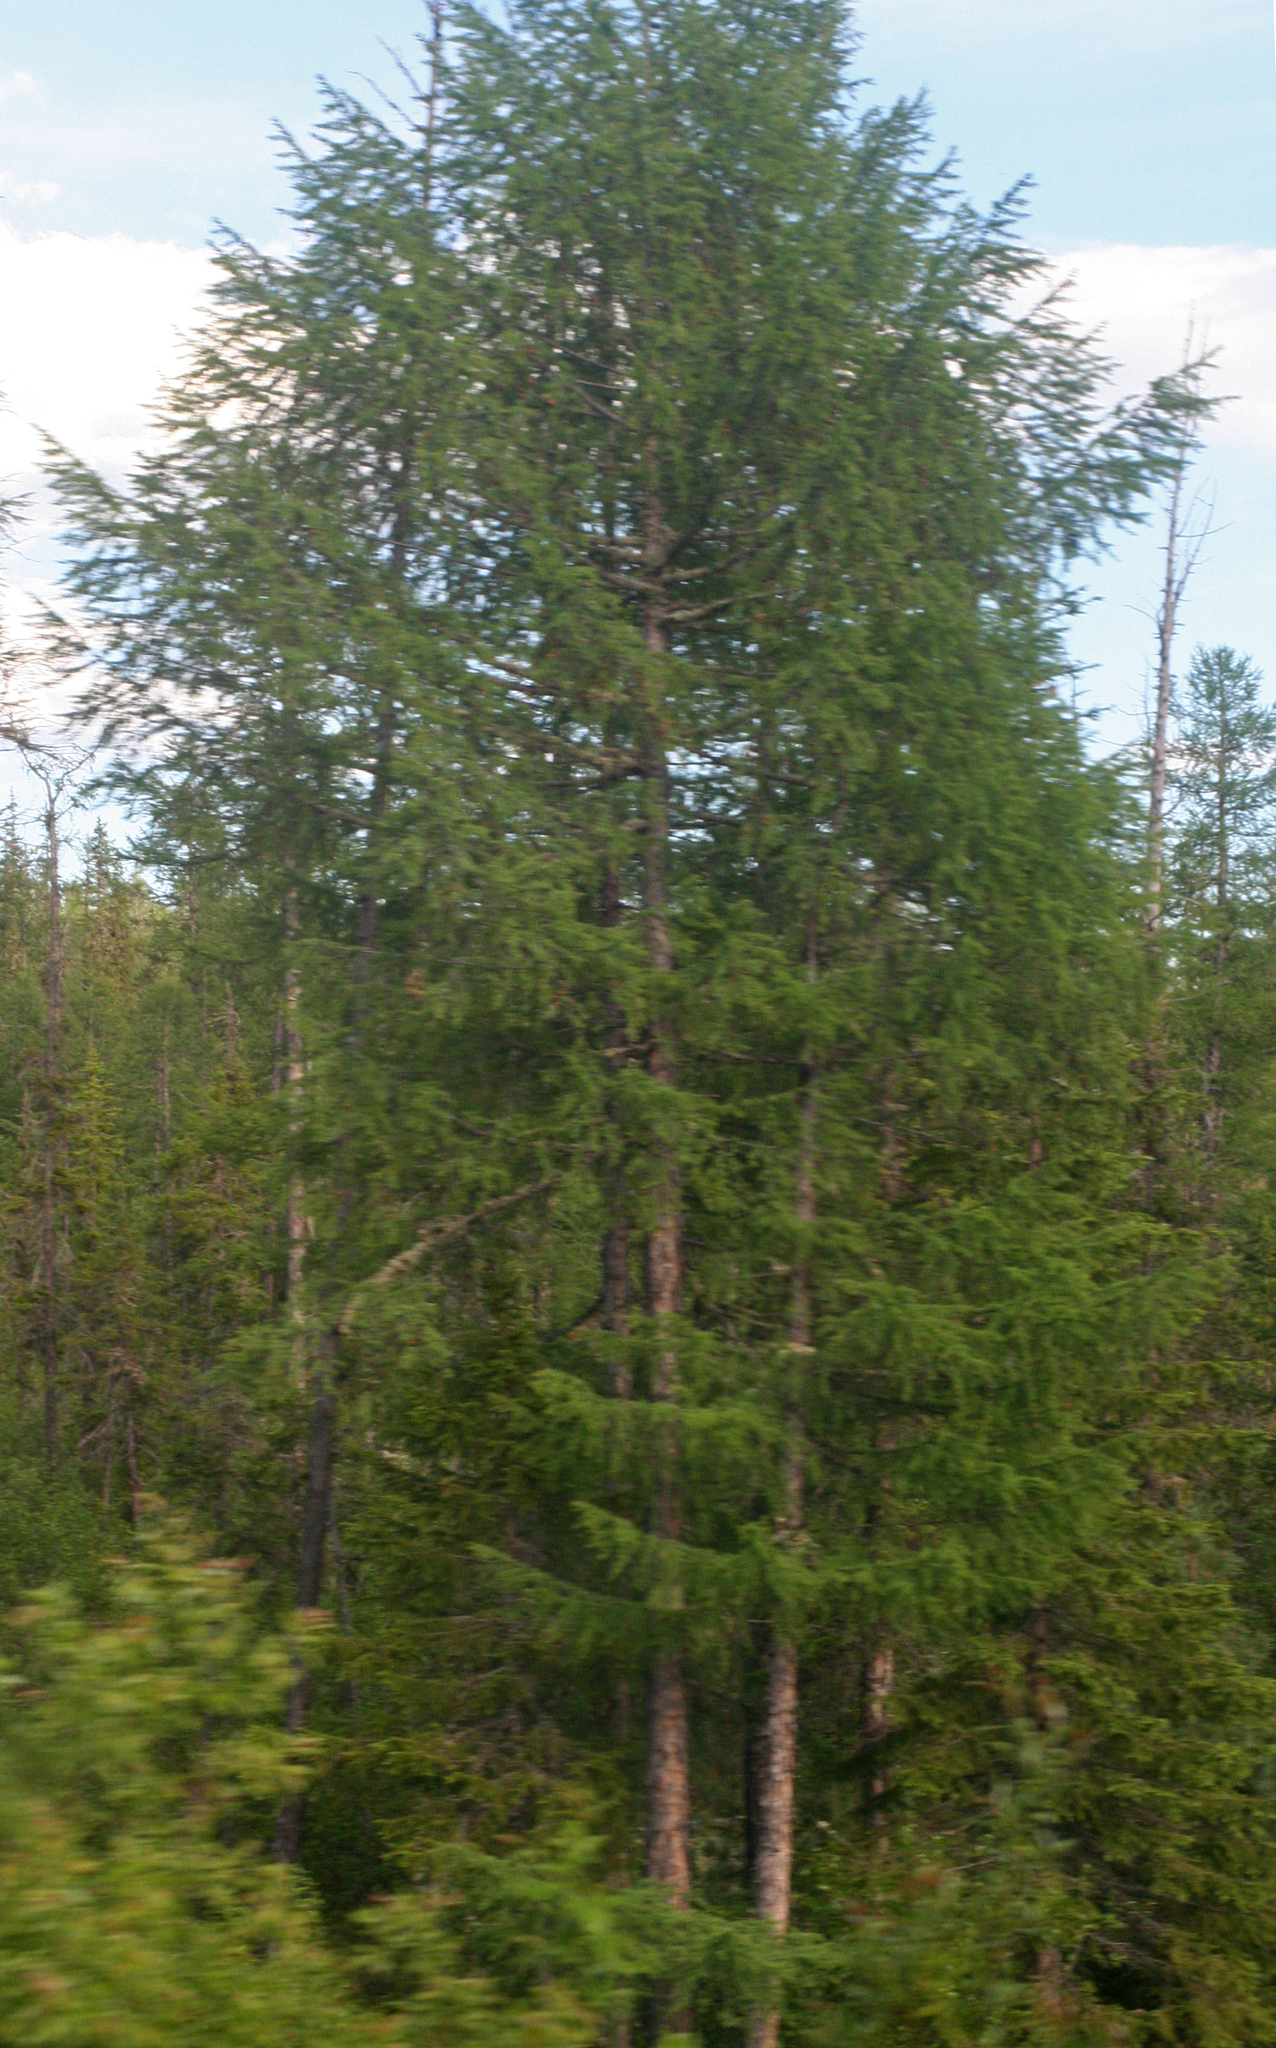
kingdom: Plantae
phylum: Tracheophyta
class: Pinopsida
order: Pinales
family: Pinaceae
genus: Larix
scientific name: Larix gmelinii
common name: Dahurian larch
